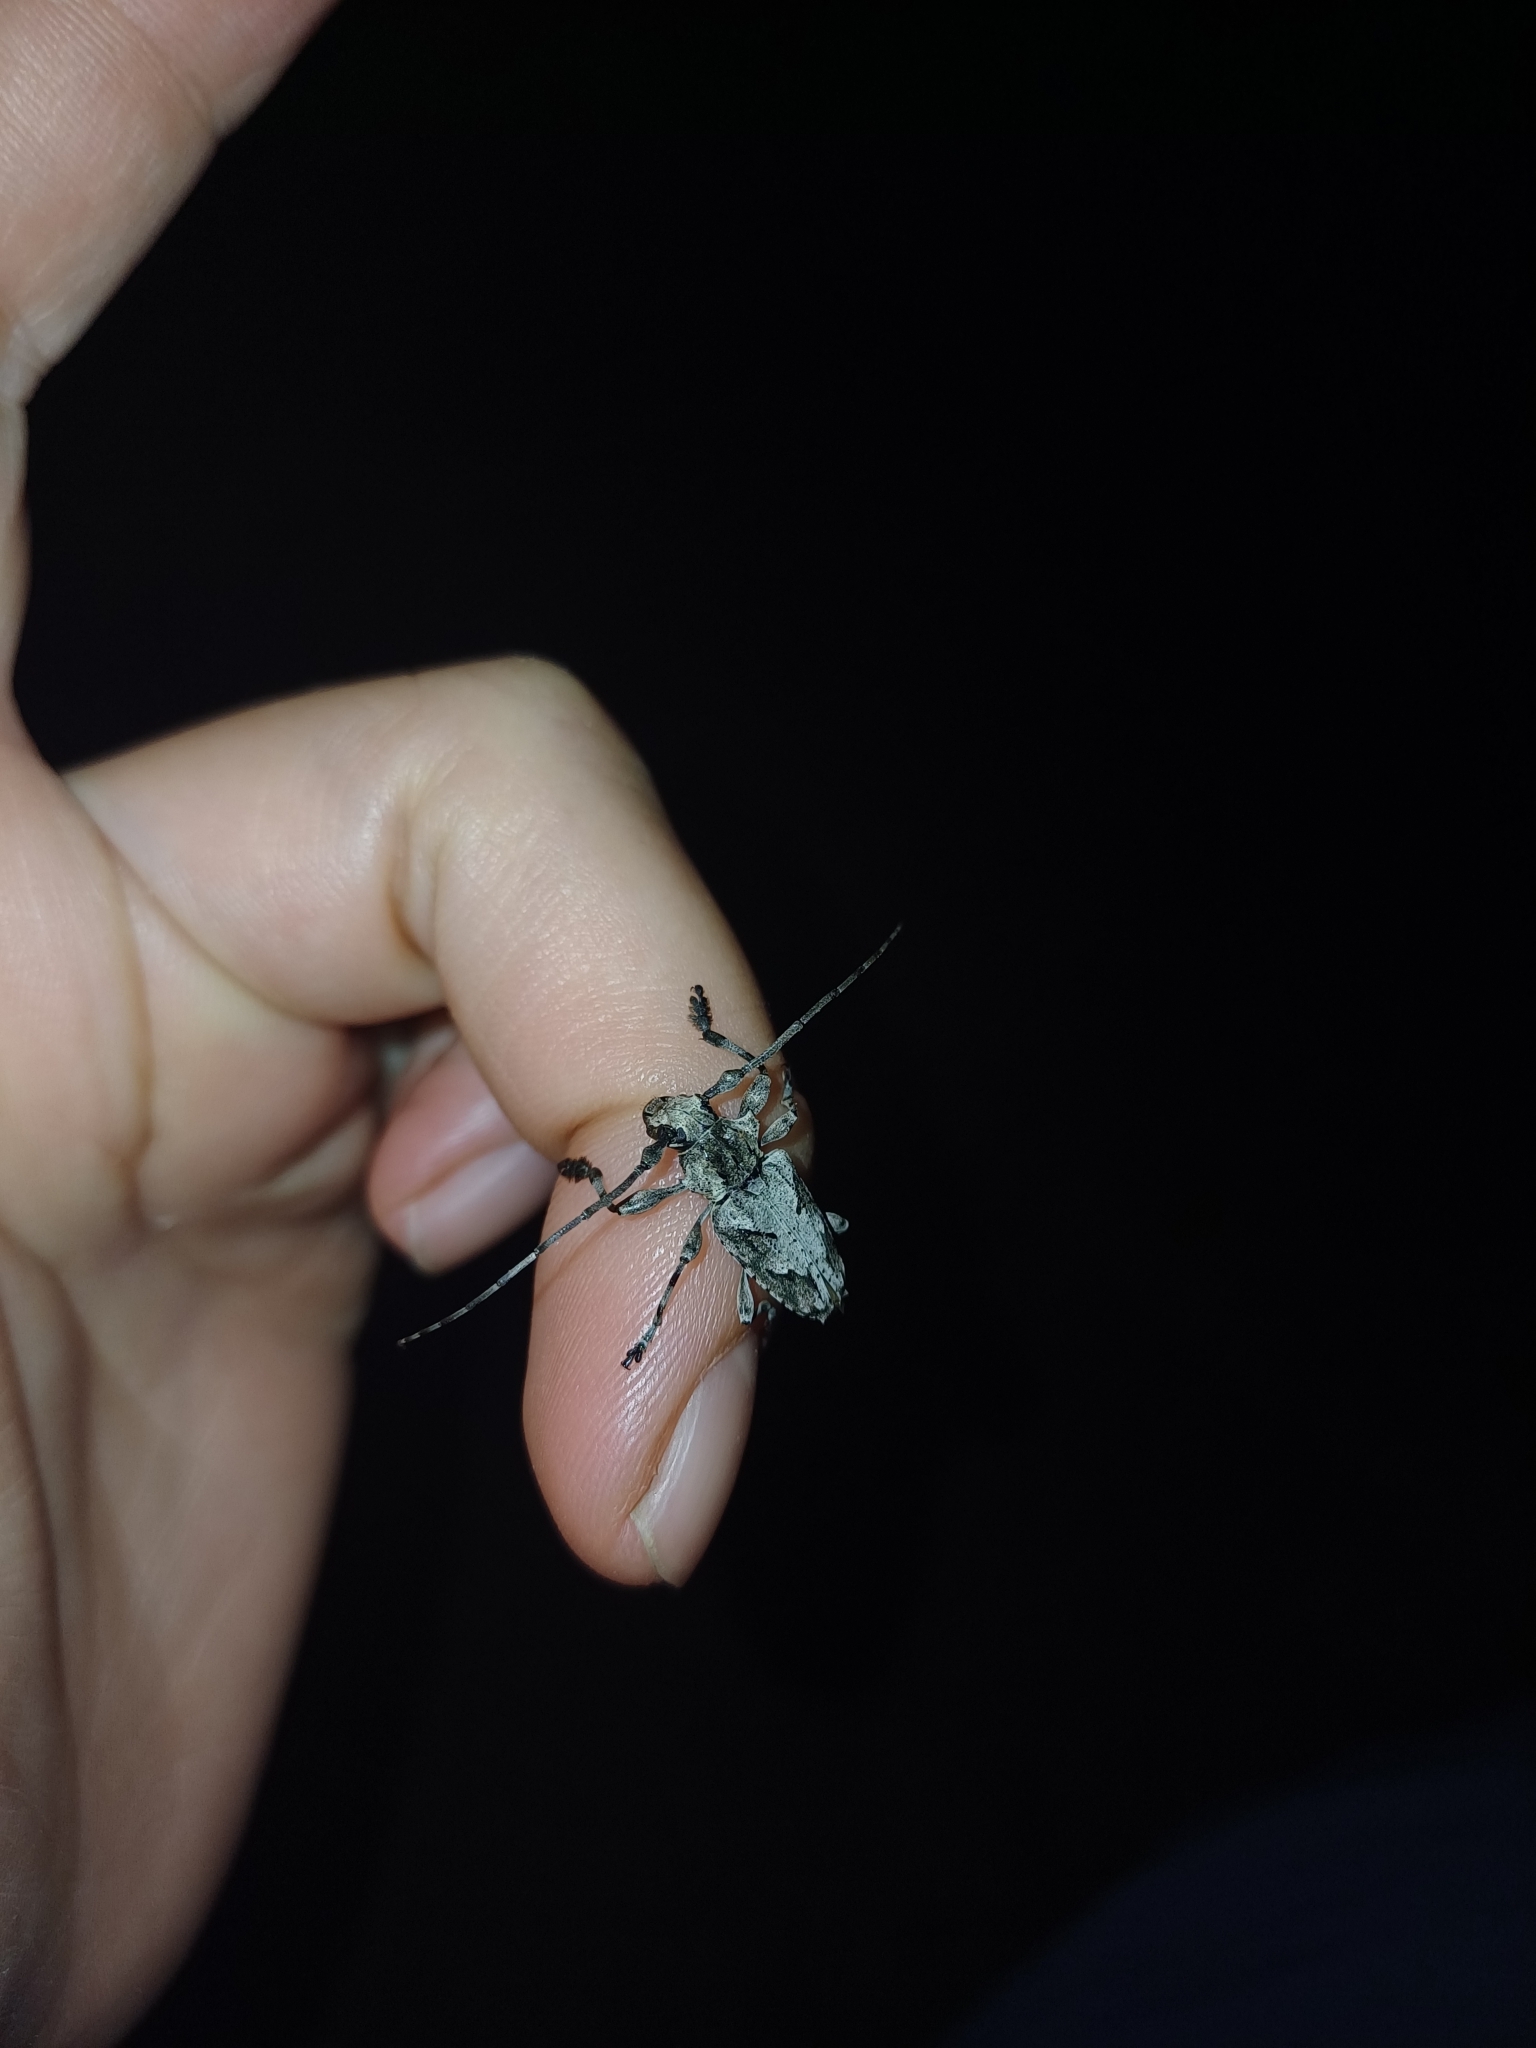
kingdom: Animalia
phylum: Arthropoda
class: Insecta
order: Coleoptera
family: Cerambycidae
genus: Steirastoma
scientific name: Steirastoma stellio
